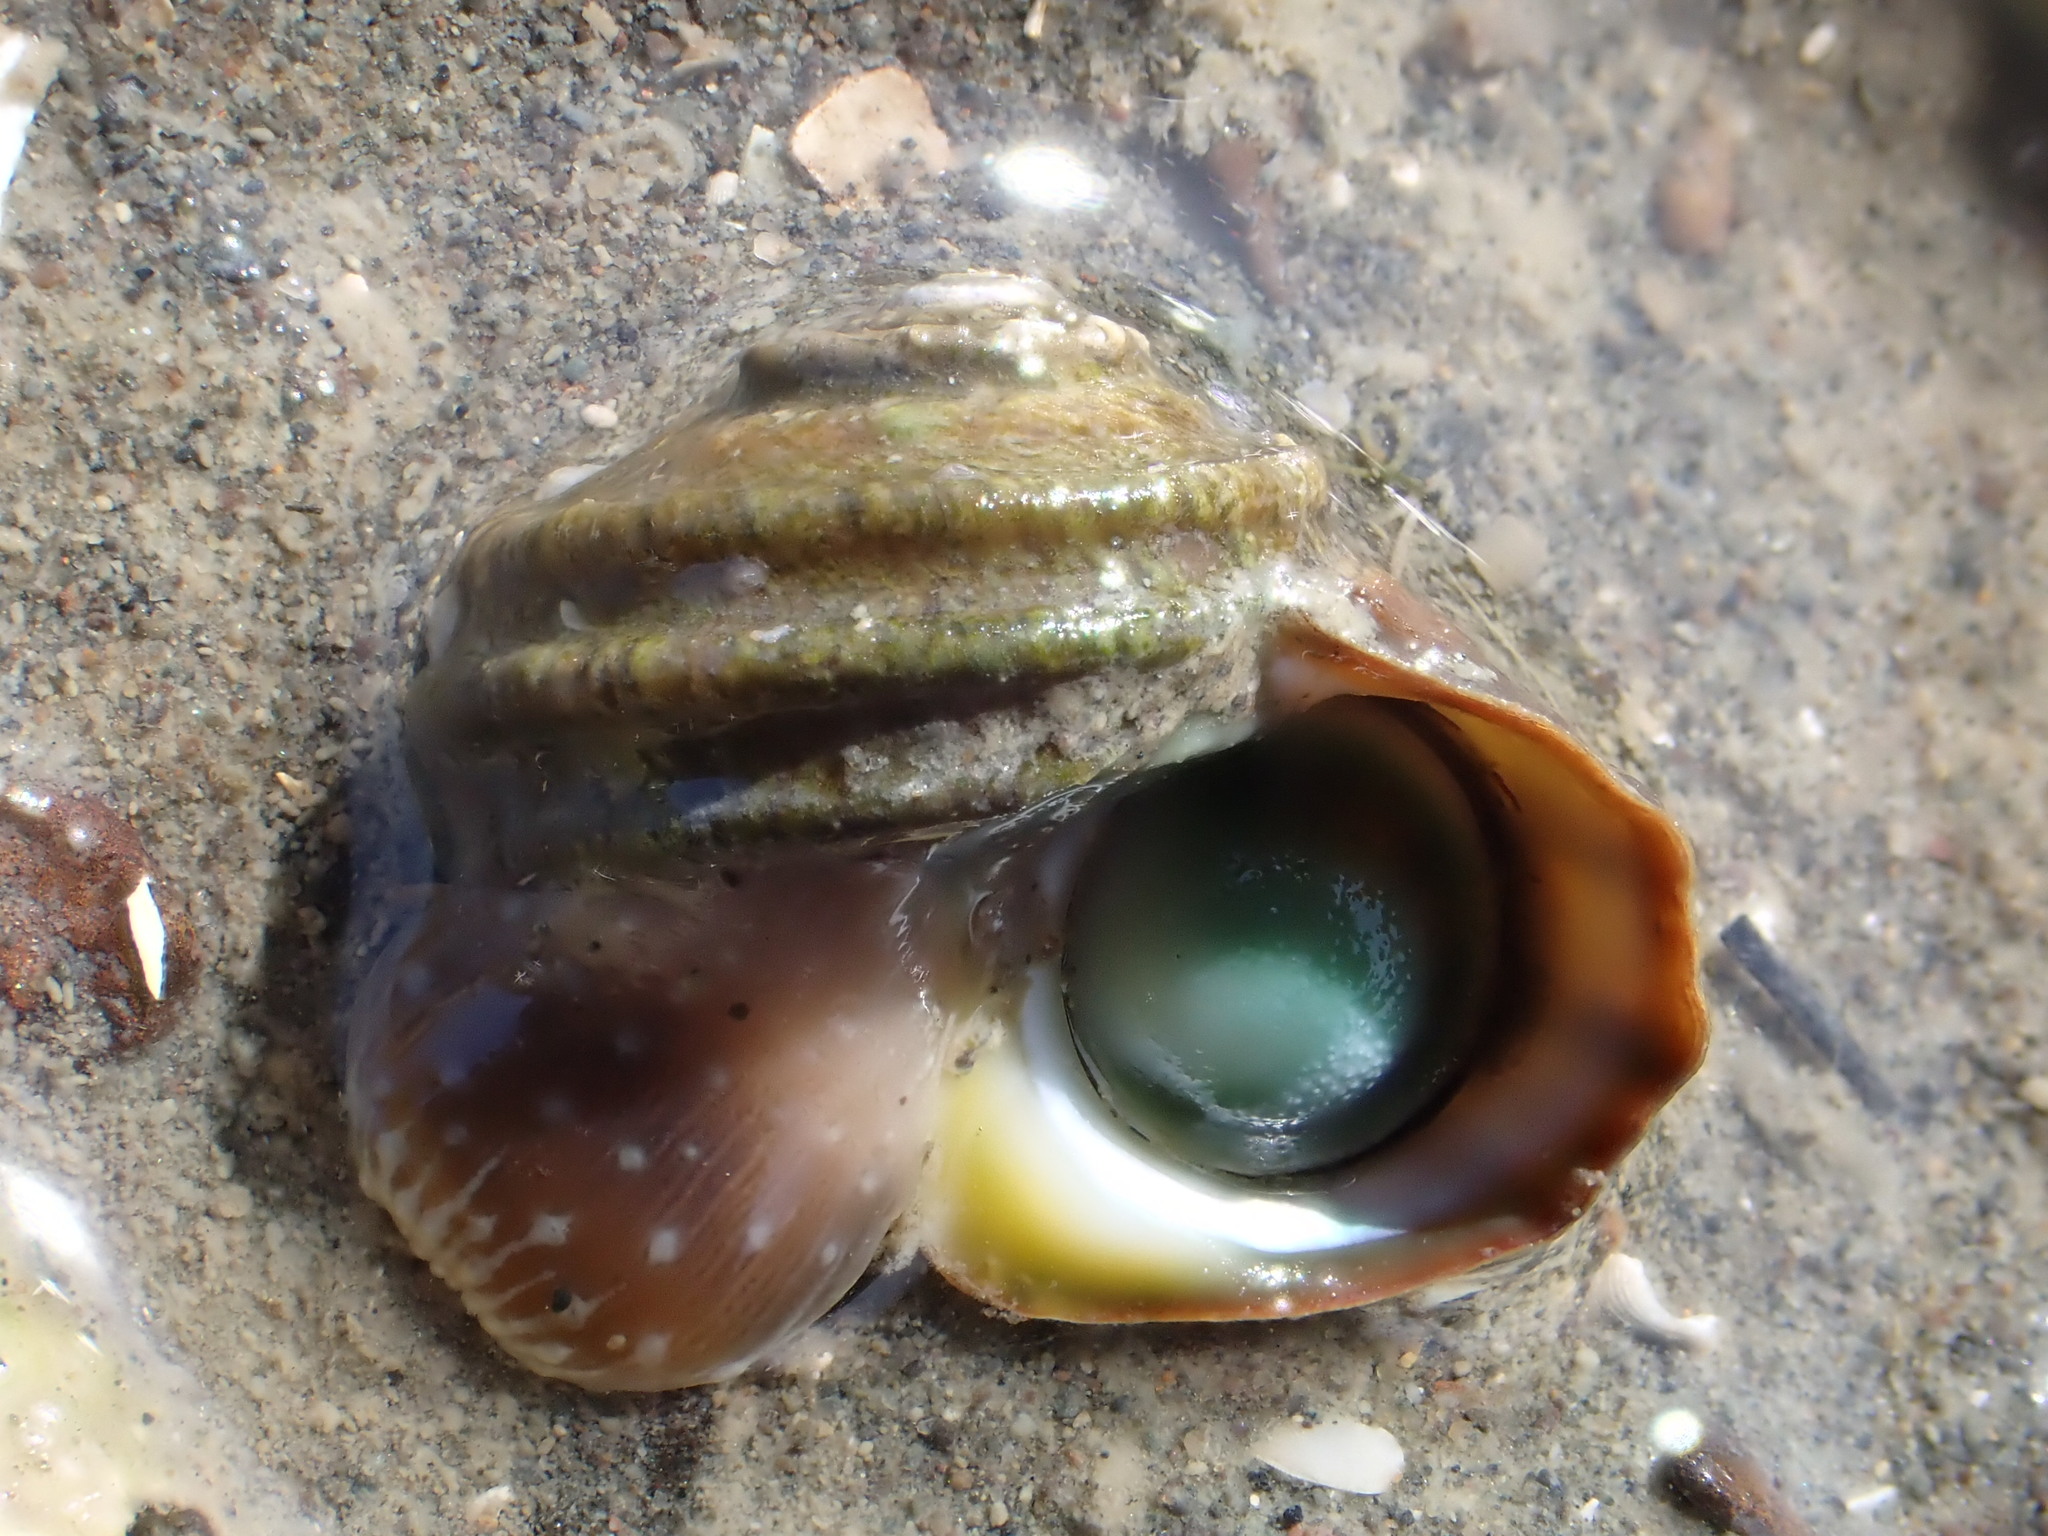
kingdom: Animalia
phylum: Mollusca
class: Gastropoda
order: Trochida
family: Turbinidae
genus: Lunella
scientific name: Lunella smaragda
